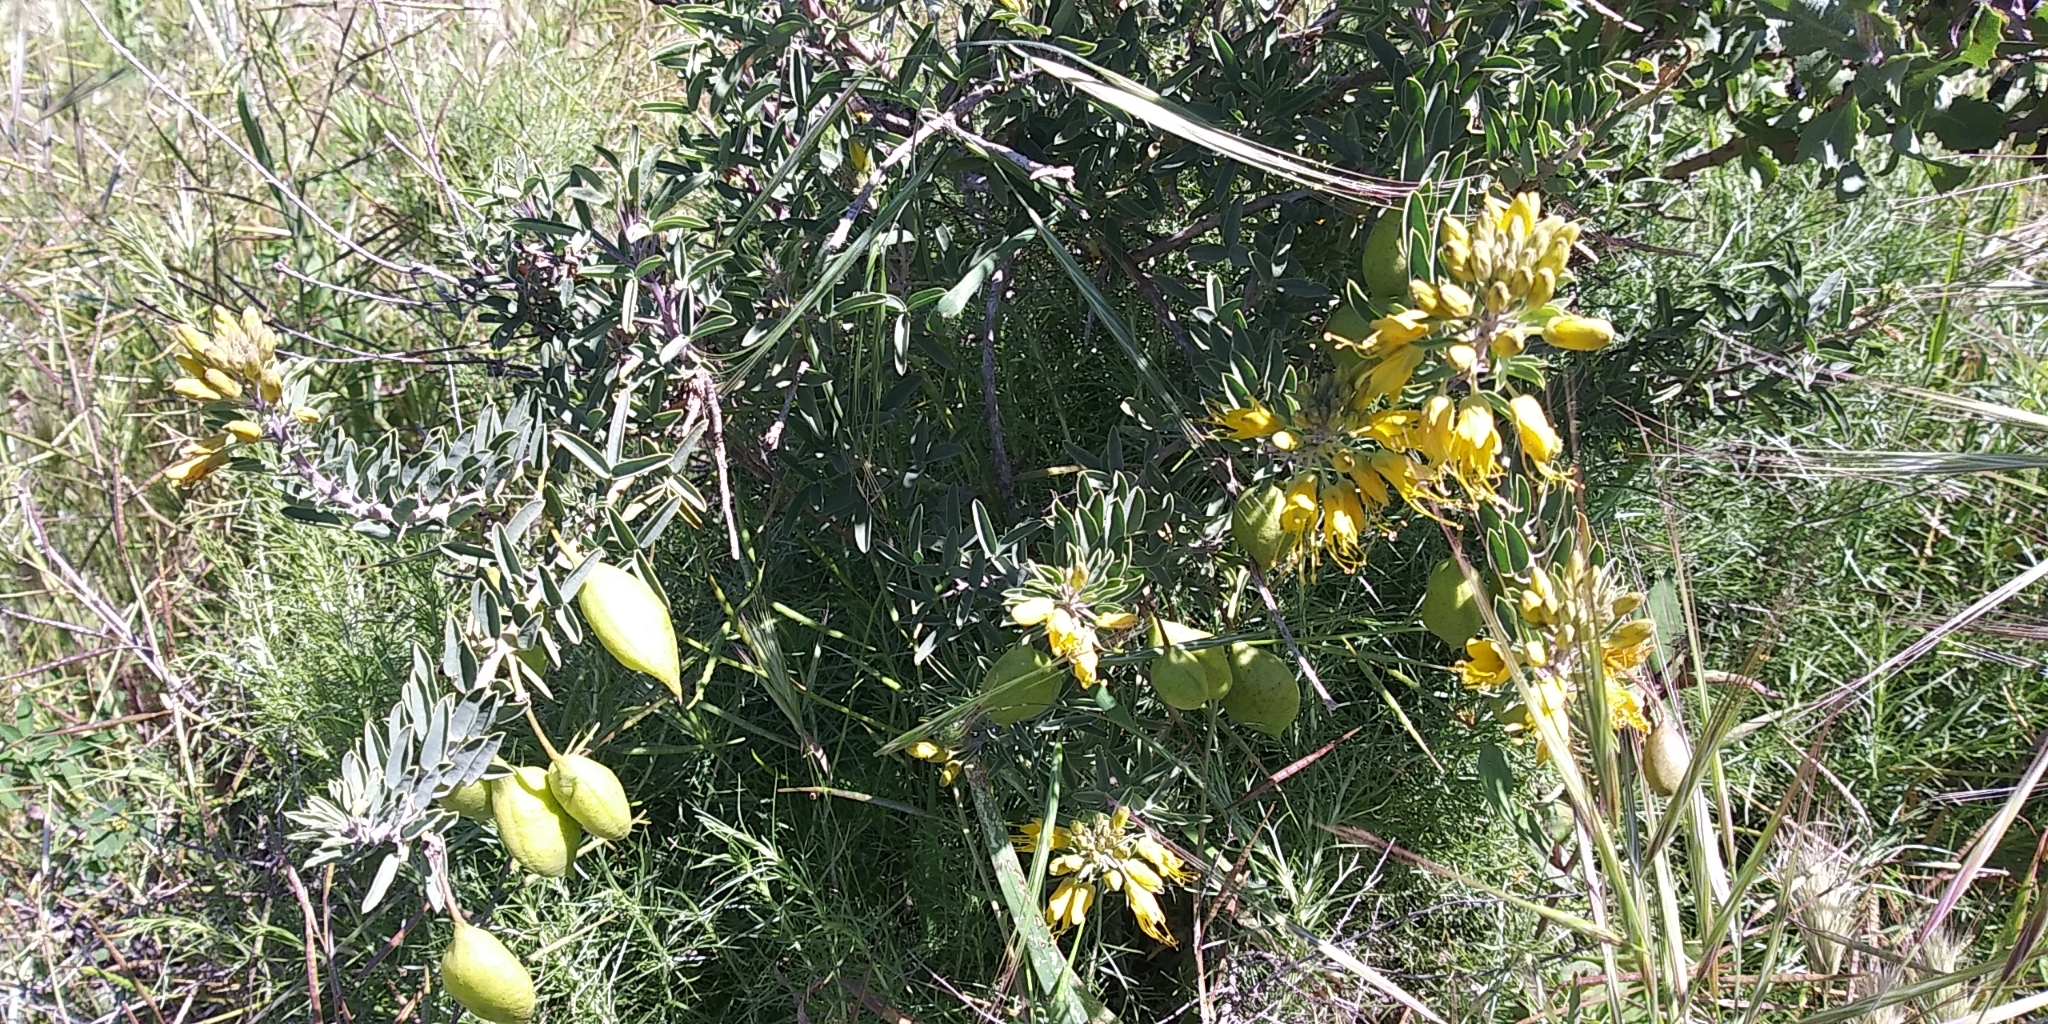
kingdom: Plantae
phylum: Tracheophyta
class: Magnoliopsida
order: Brassicales
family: Cleomaceae
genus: Cleomella
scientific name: Cleomella arborea
